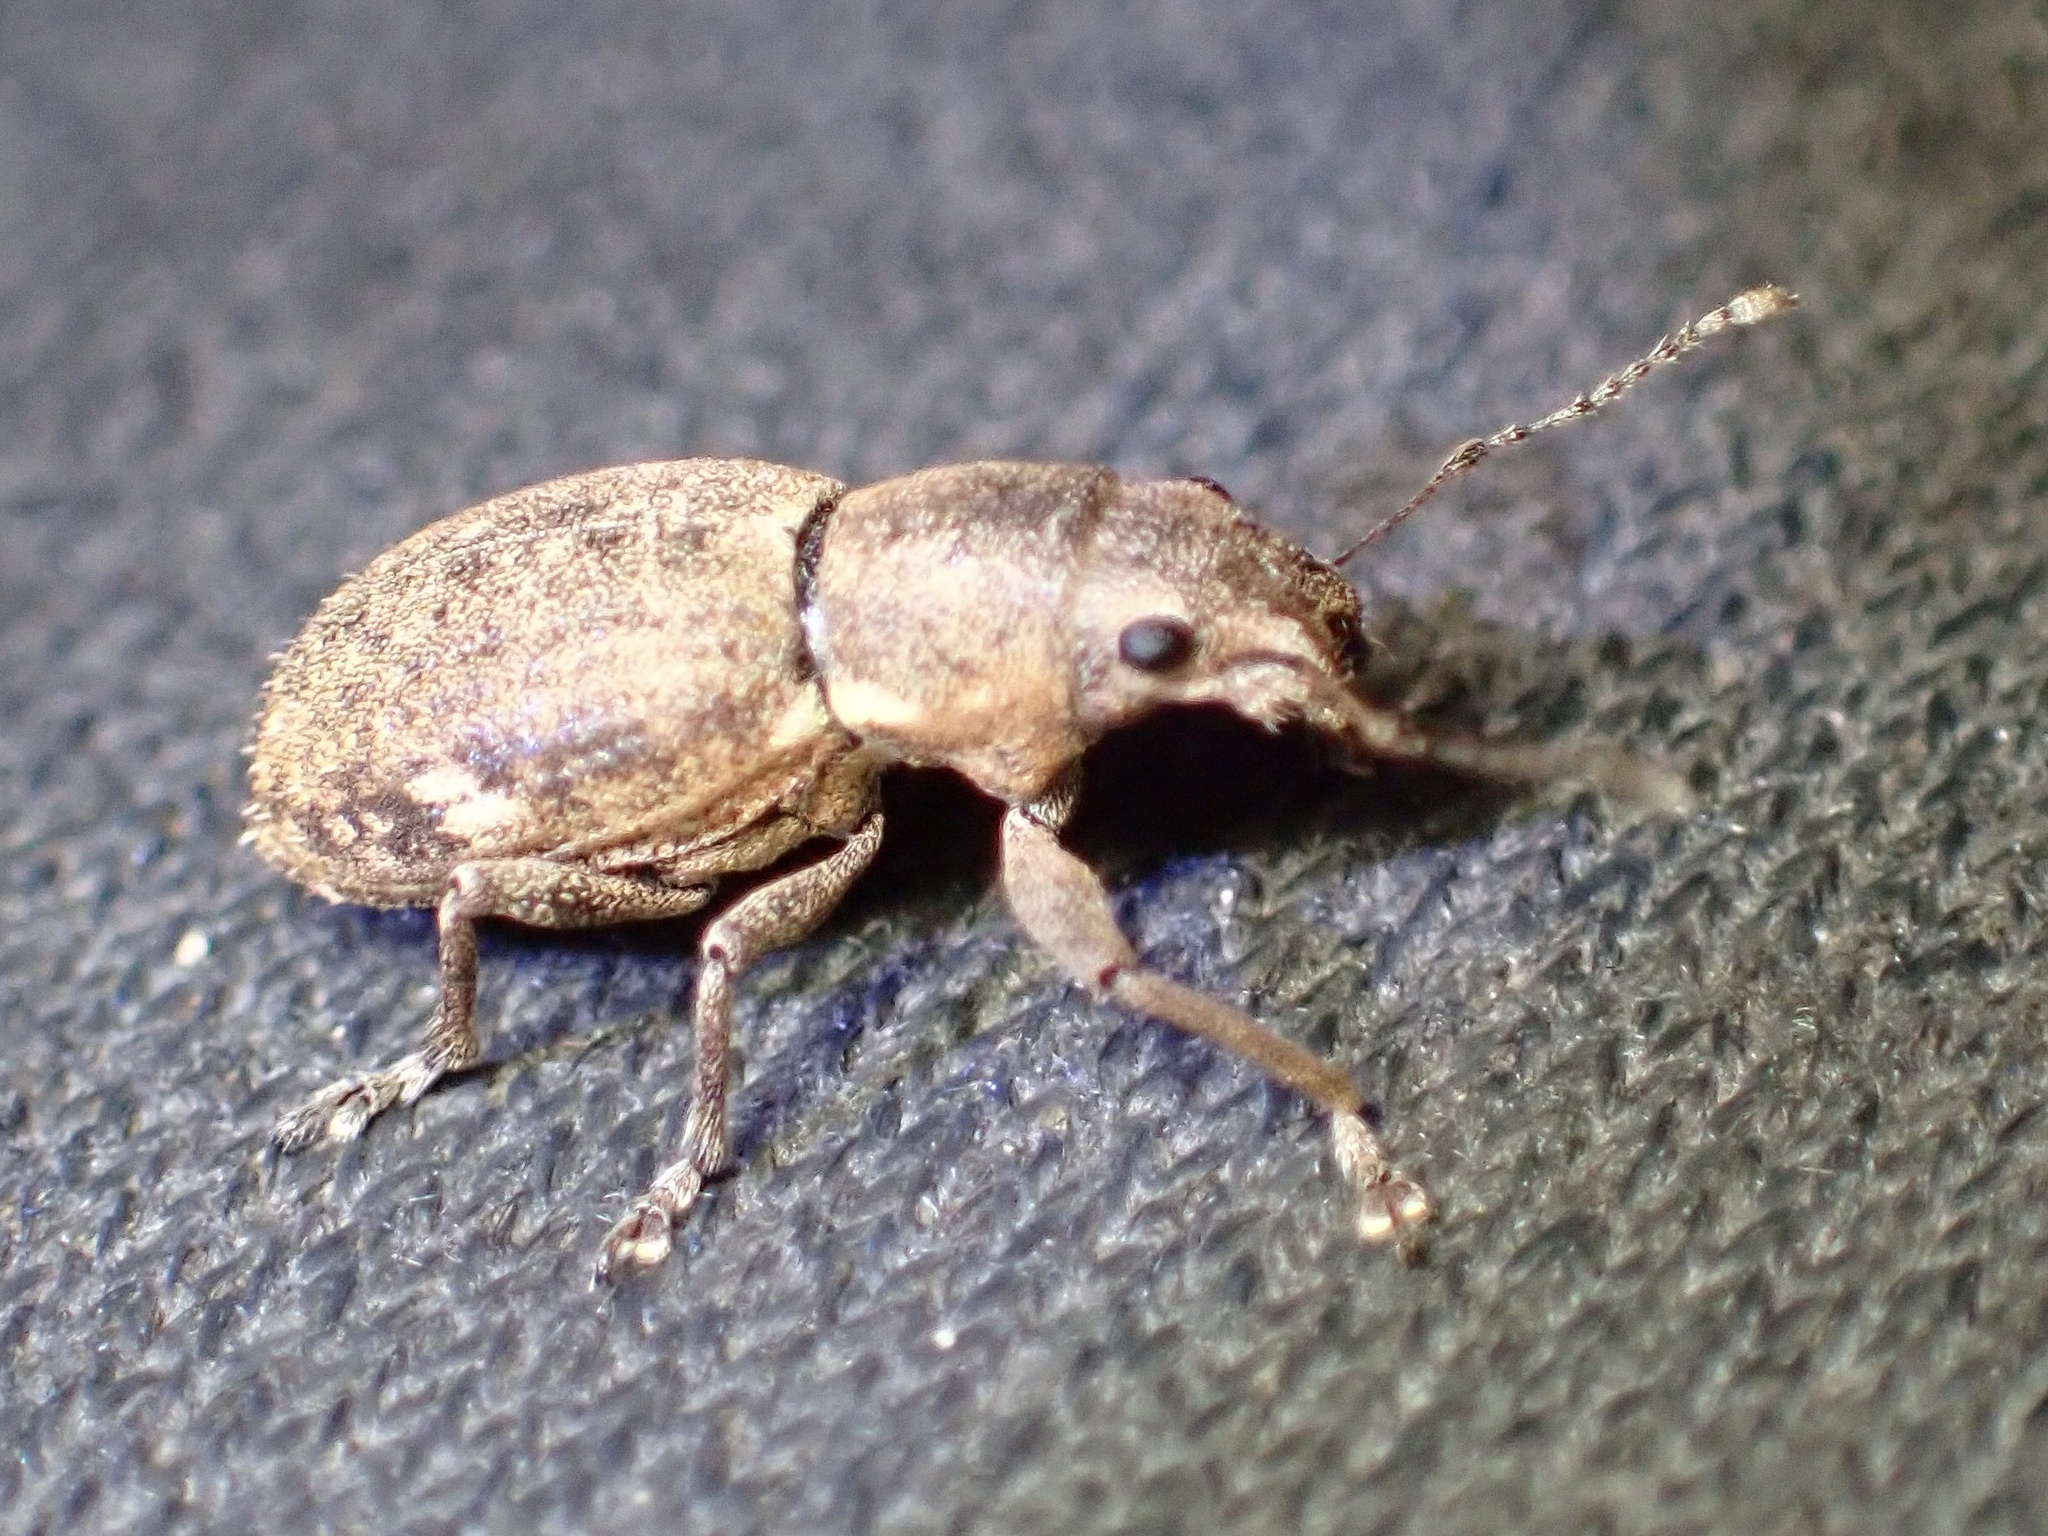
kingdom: Animalia
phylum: Arthropoda
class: Insecta
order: Coleoptera
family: Curculionidae
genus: Naupactus
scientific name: Naupactus cervinus
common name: Fuller rose beetle
